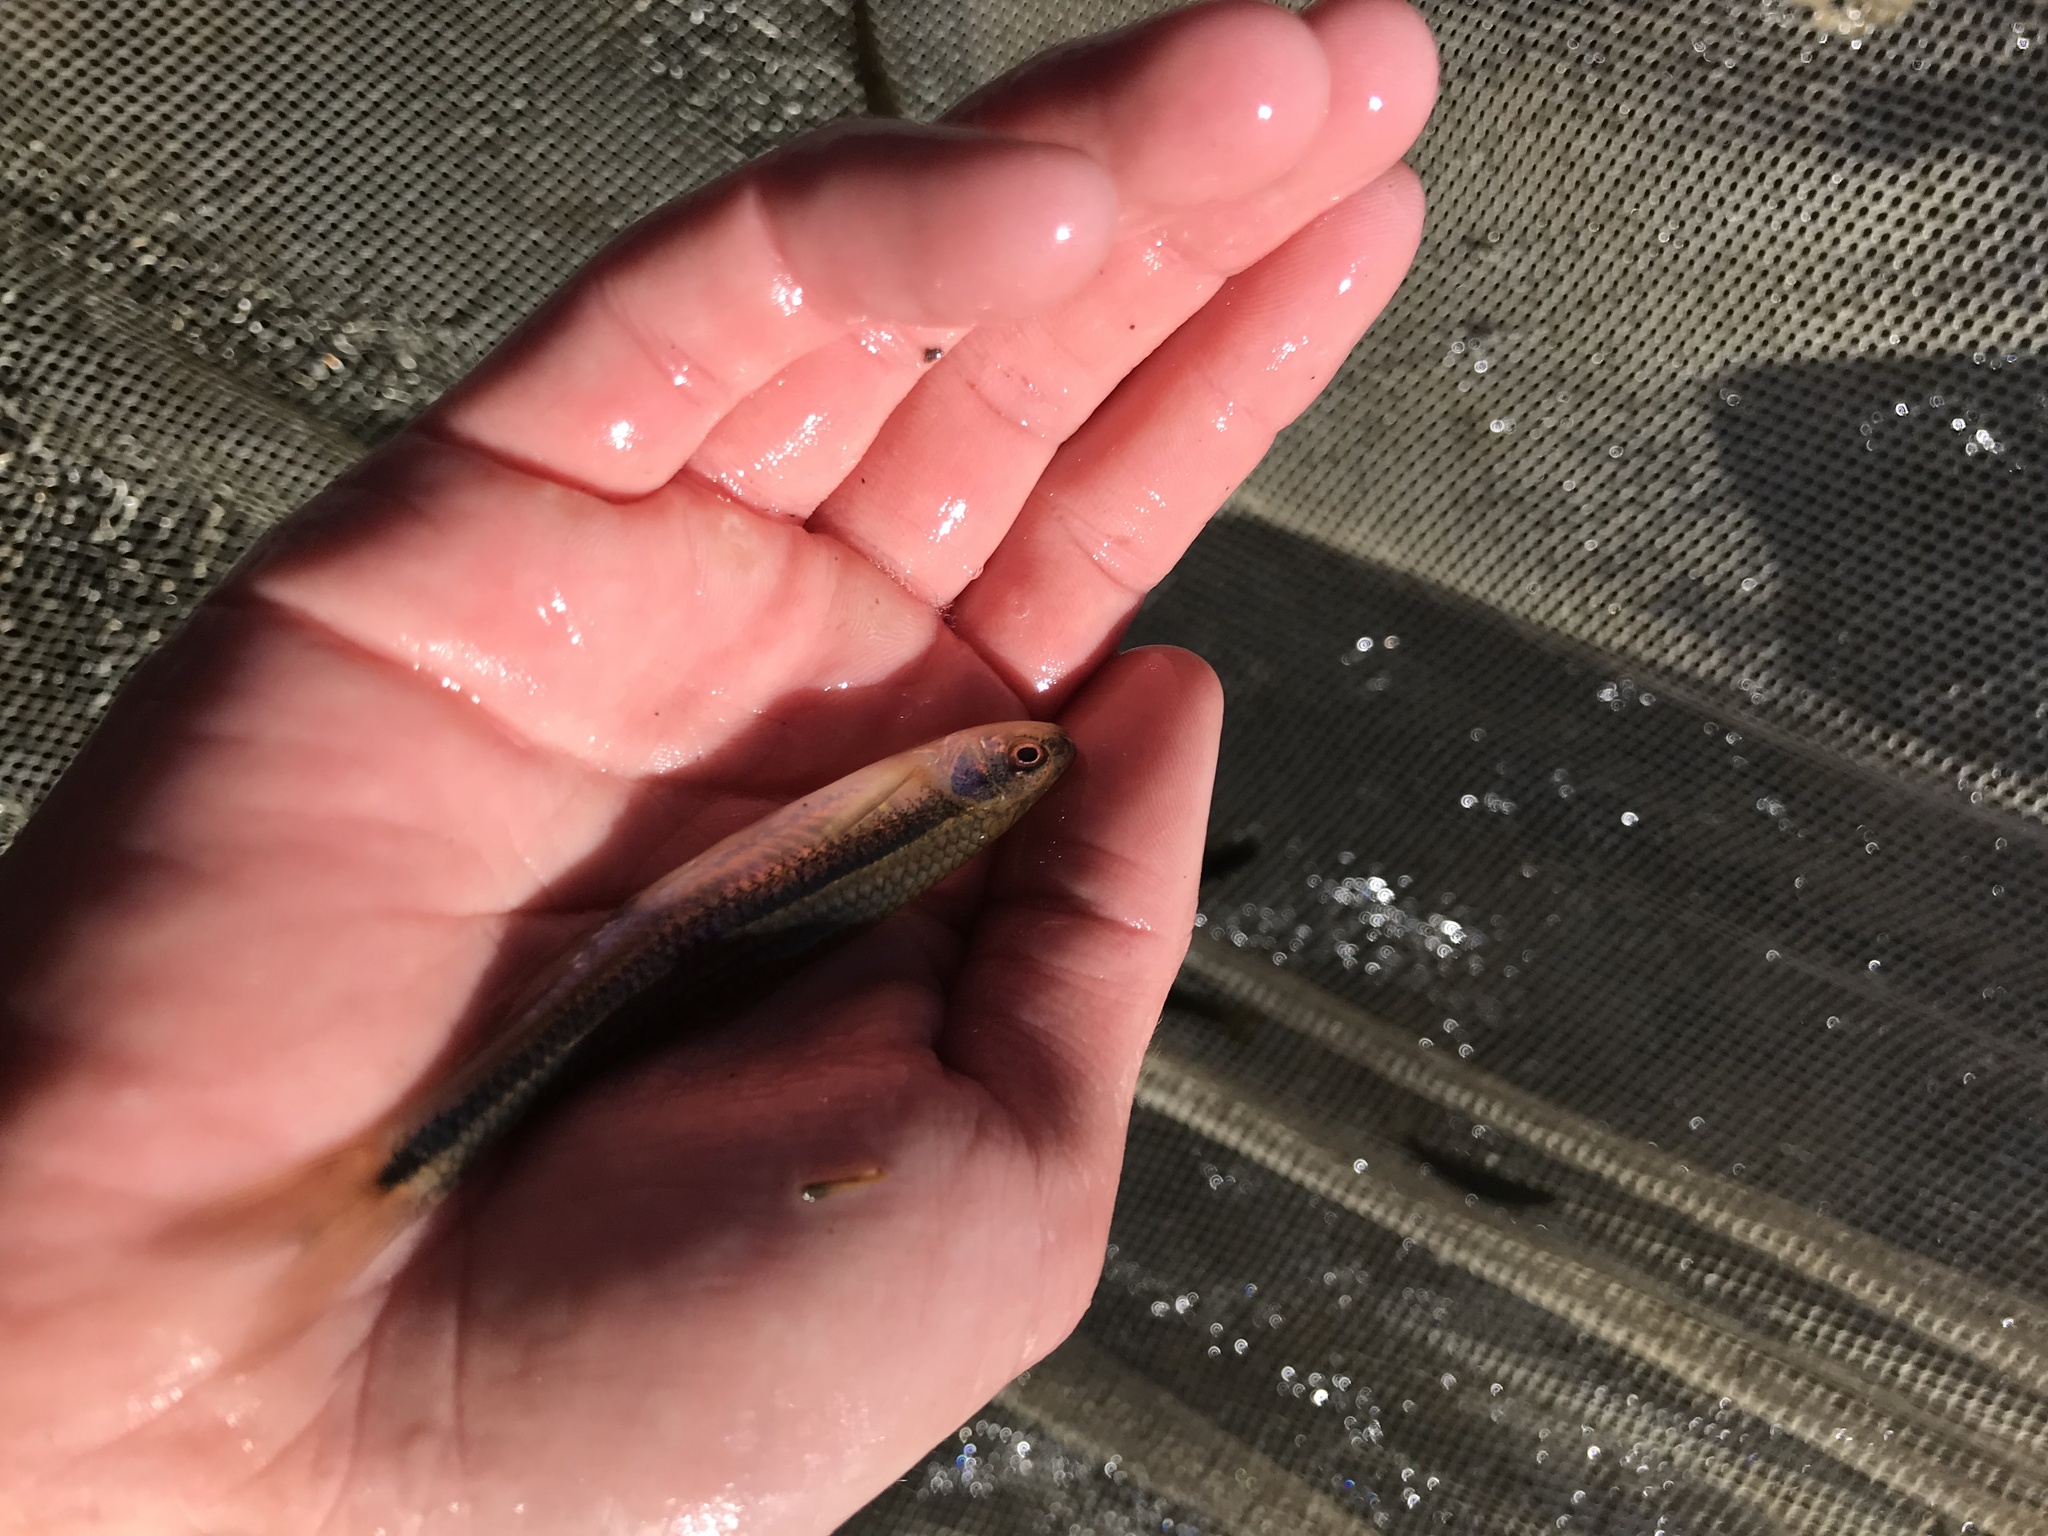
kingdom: Animalia
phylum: Chordata
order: Cypriniformes
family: Cyprinidae
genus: Notropis
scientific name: Notropis lutipinnis
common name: Yellowfin shiner
